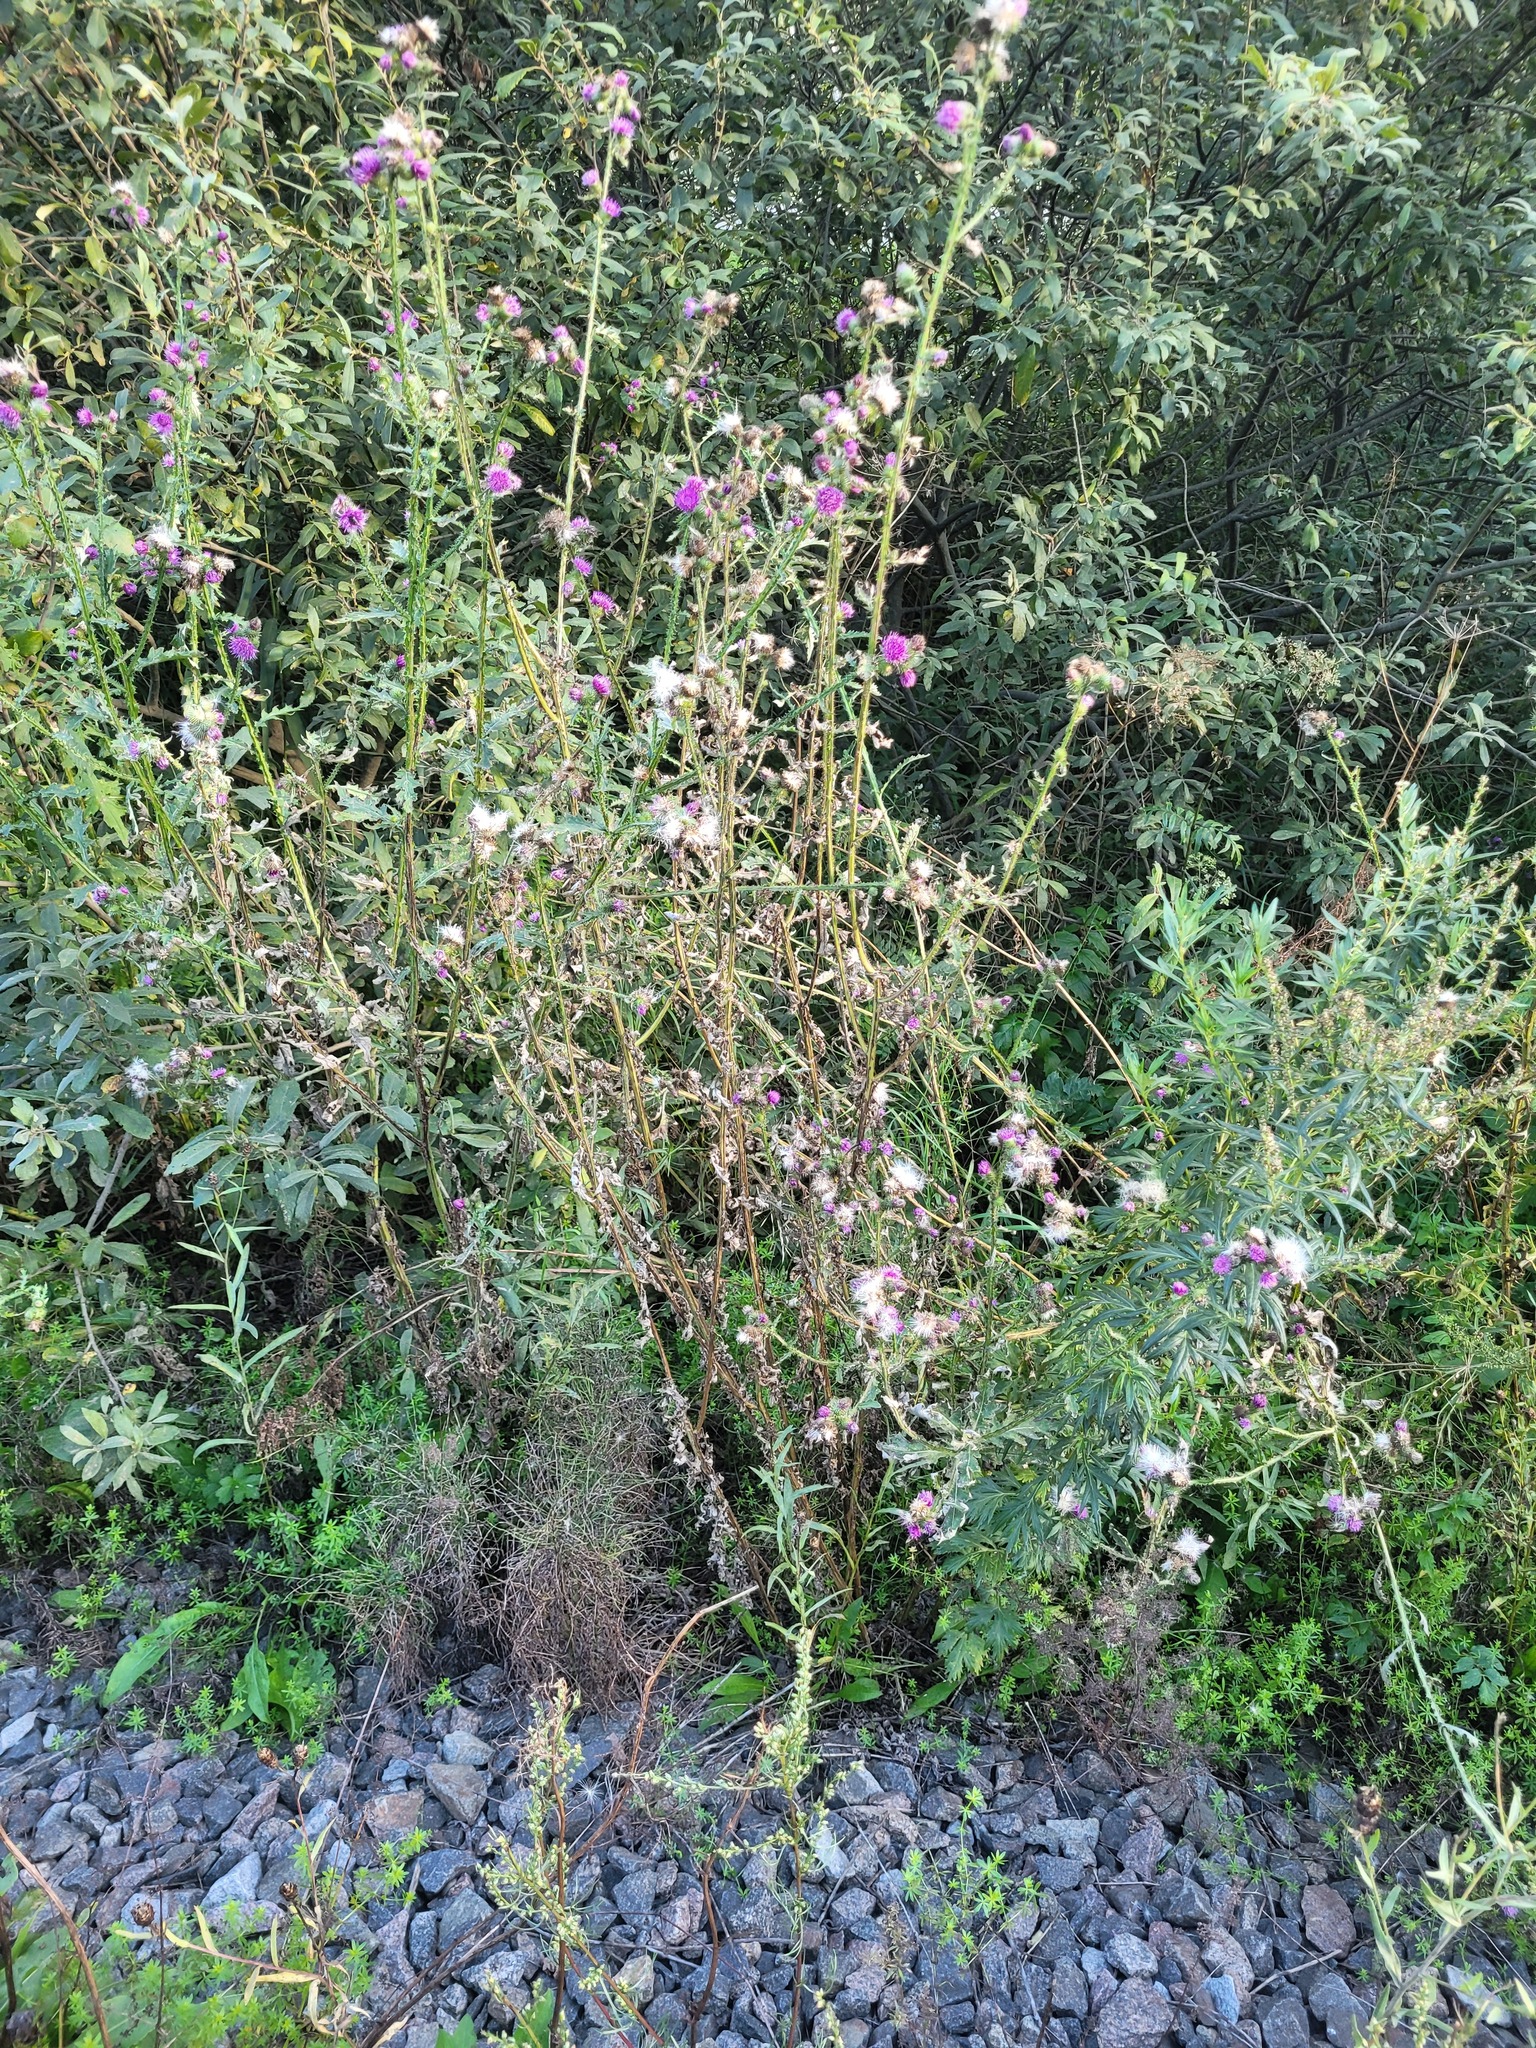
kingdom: Plantae
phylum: Tracheophyta
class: Magnoliopsida
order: Asterales
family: Asteraceae
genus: Carduus
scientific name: Carduus crispus
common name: Welted thistle
